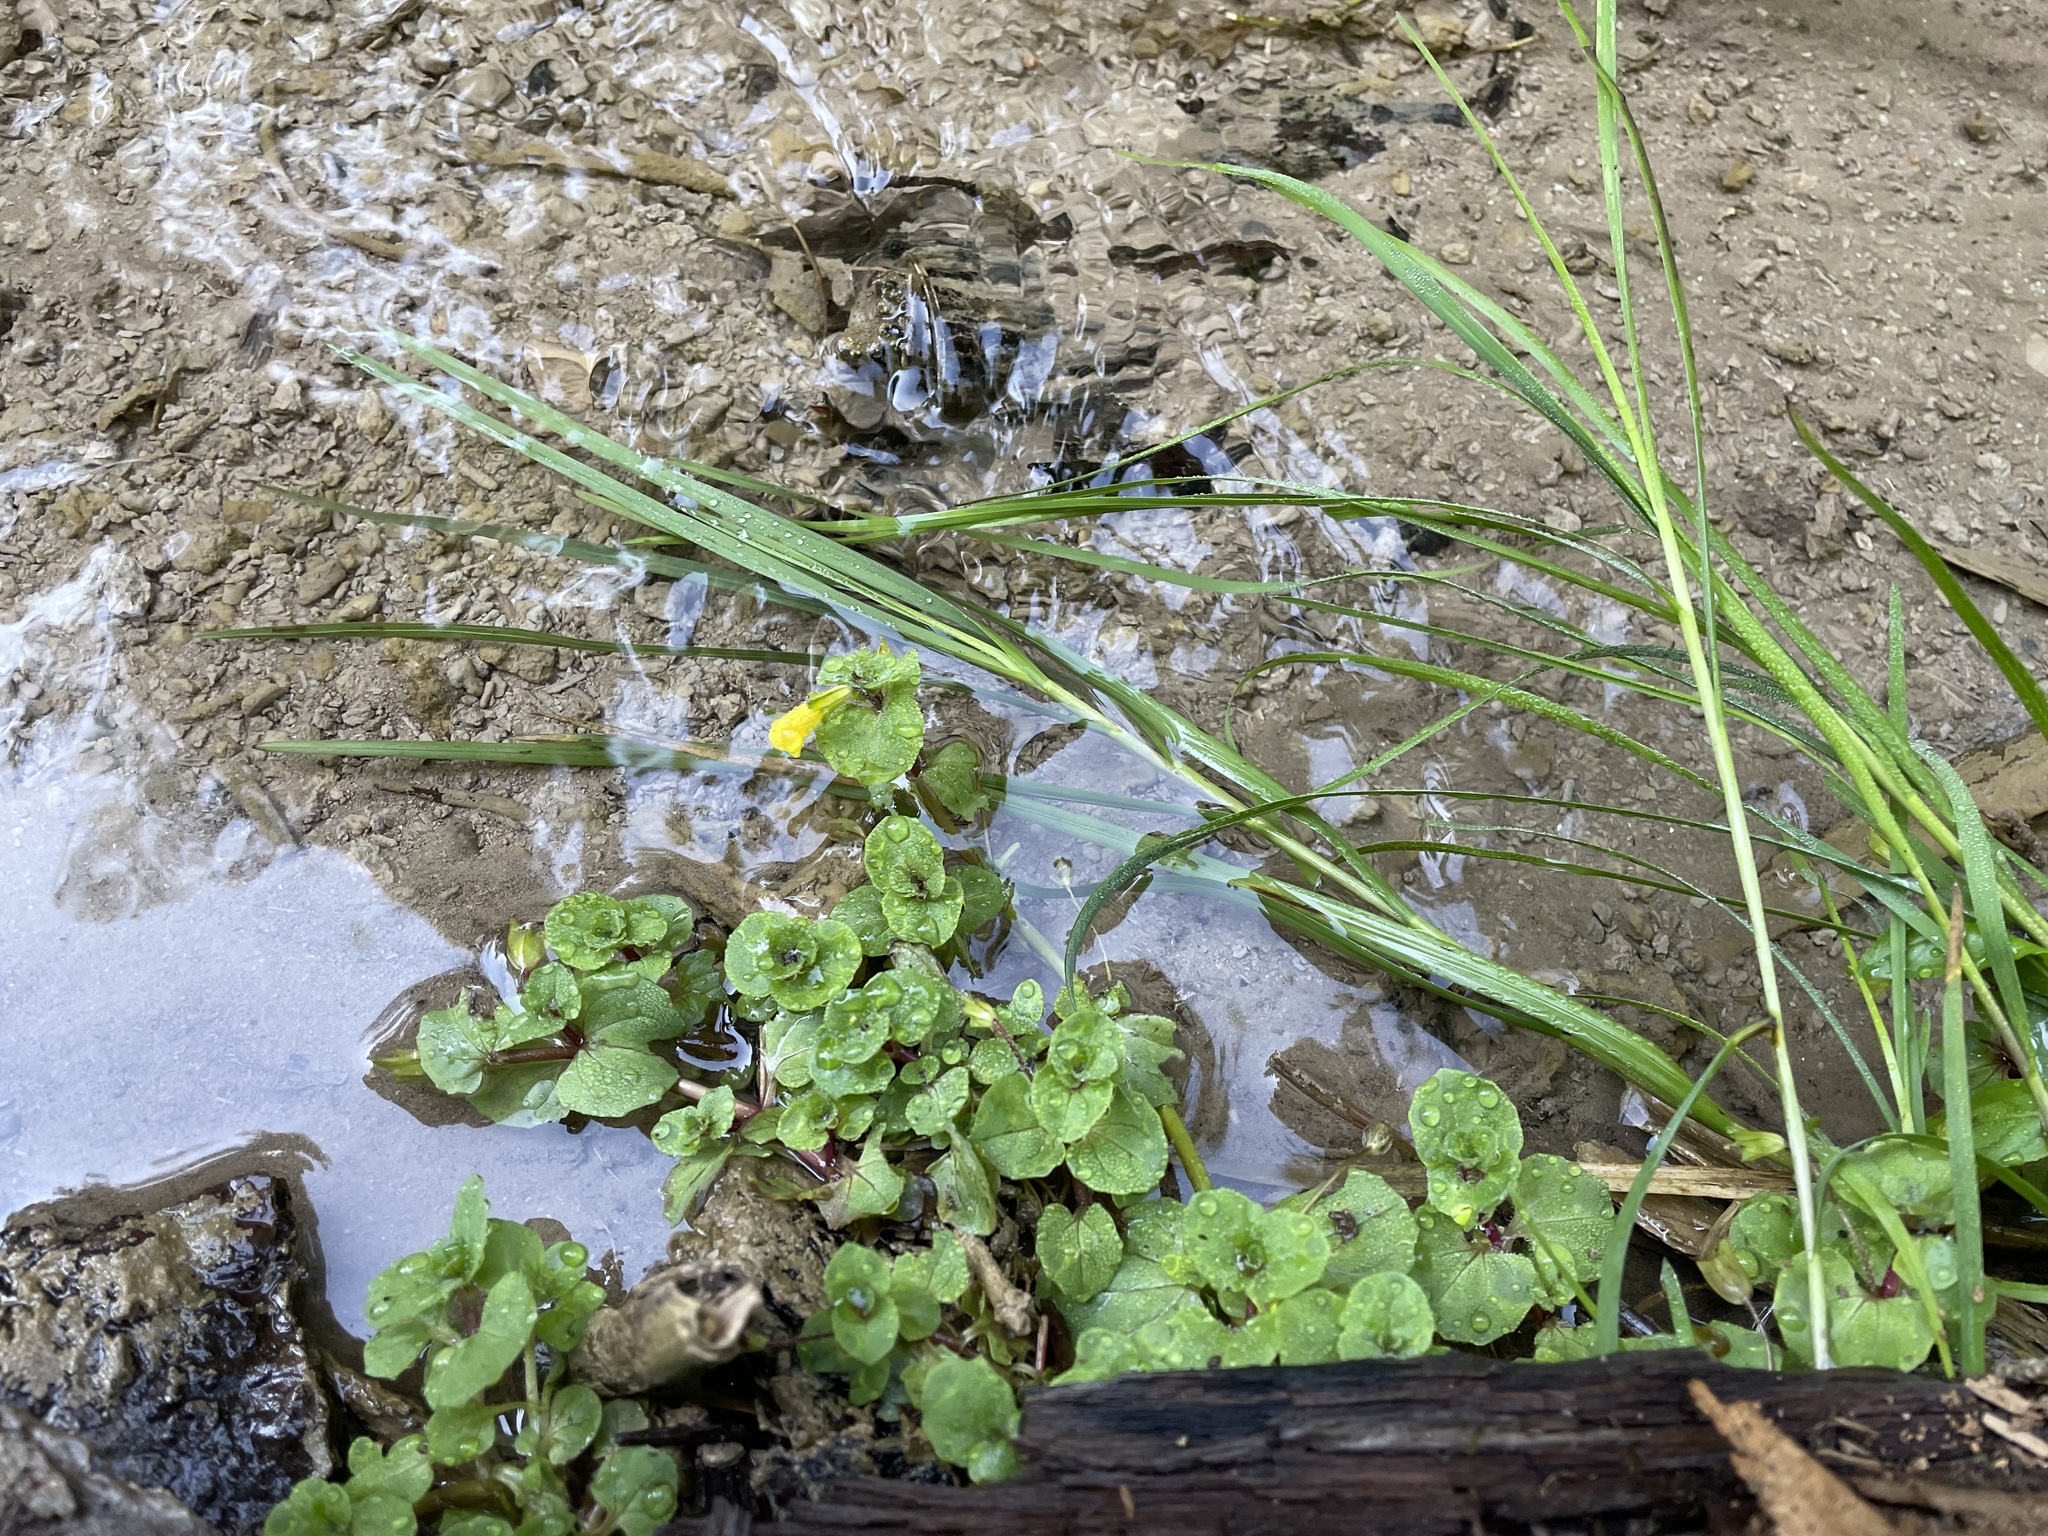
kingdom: Plantae
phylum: Tracheophyta
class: Magnoliopsida
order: Lamiales
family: Phrymaceae
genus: Erythranthe
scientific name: Erythranthe geyeri
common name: Geyer's monkeyflower
